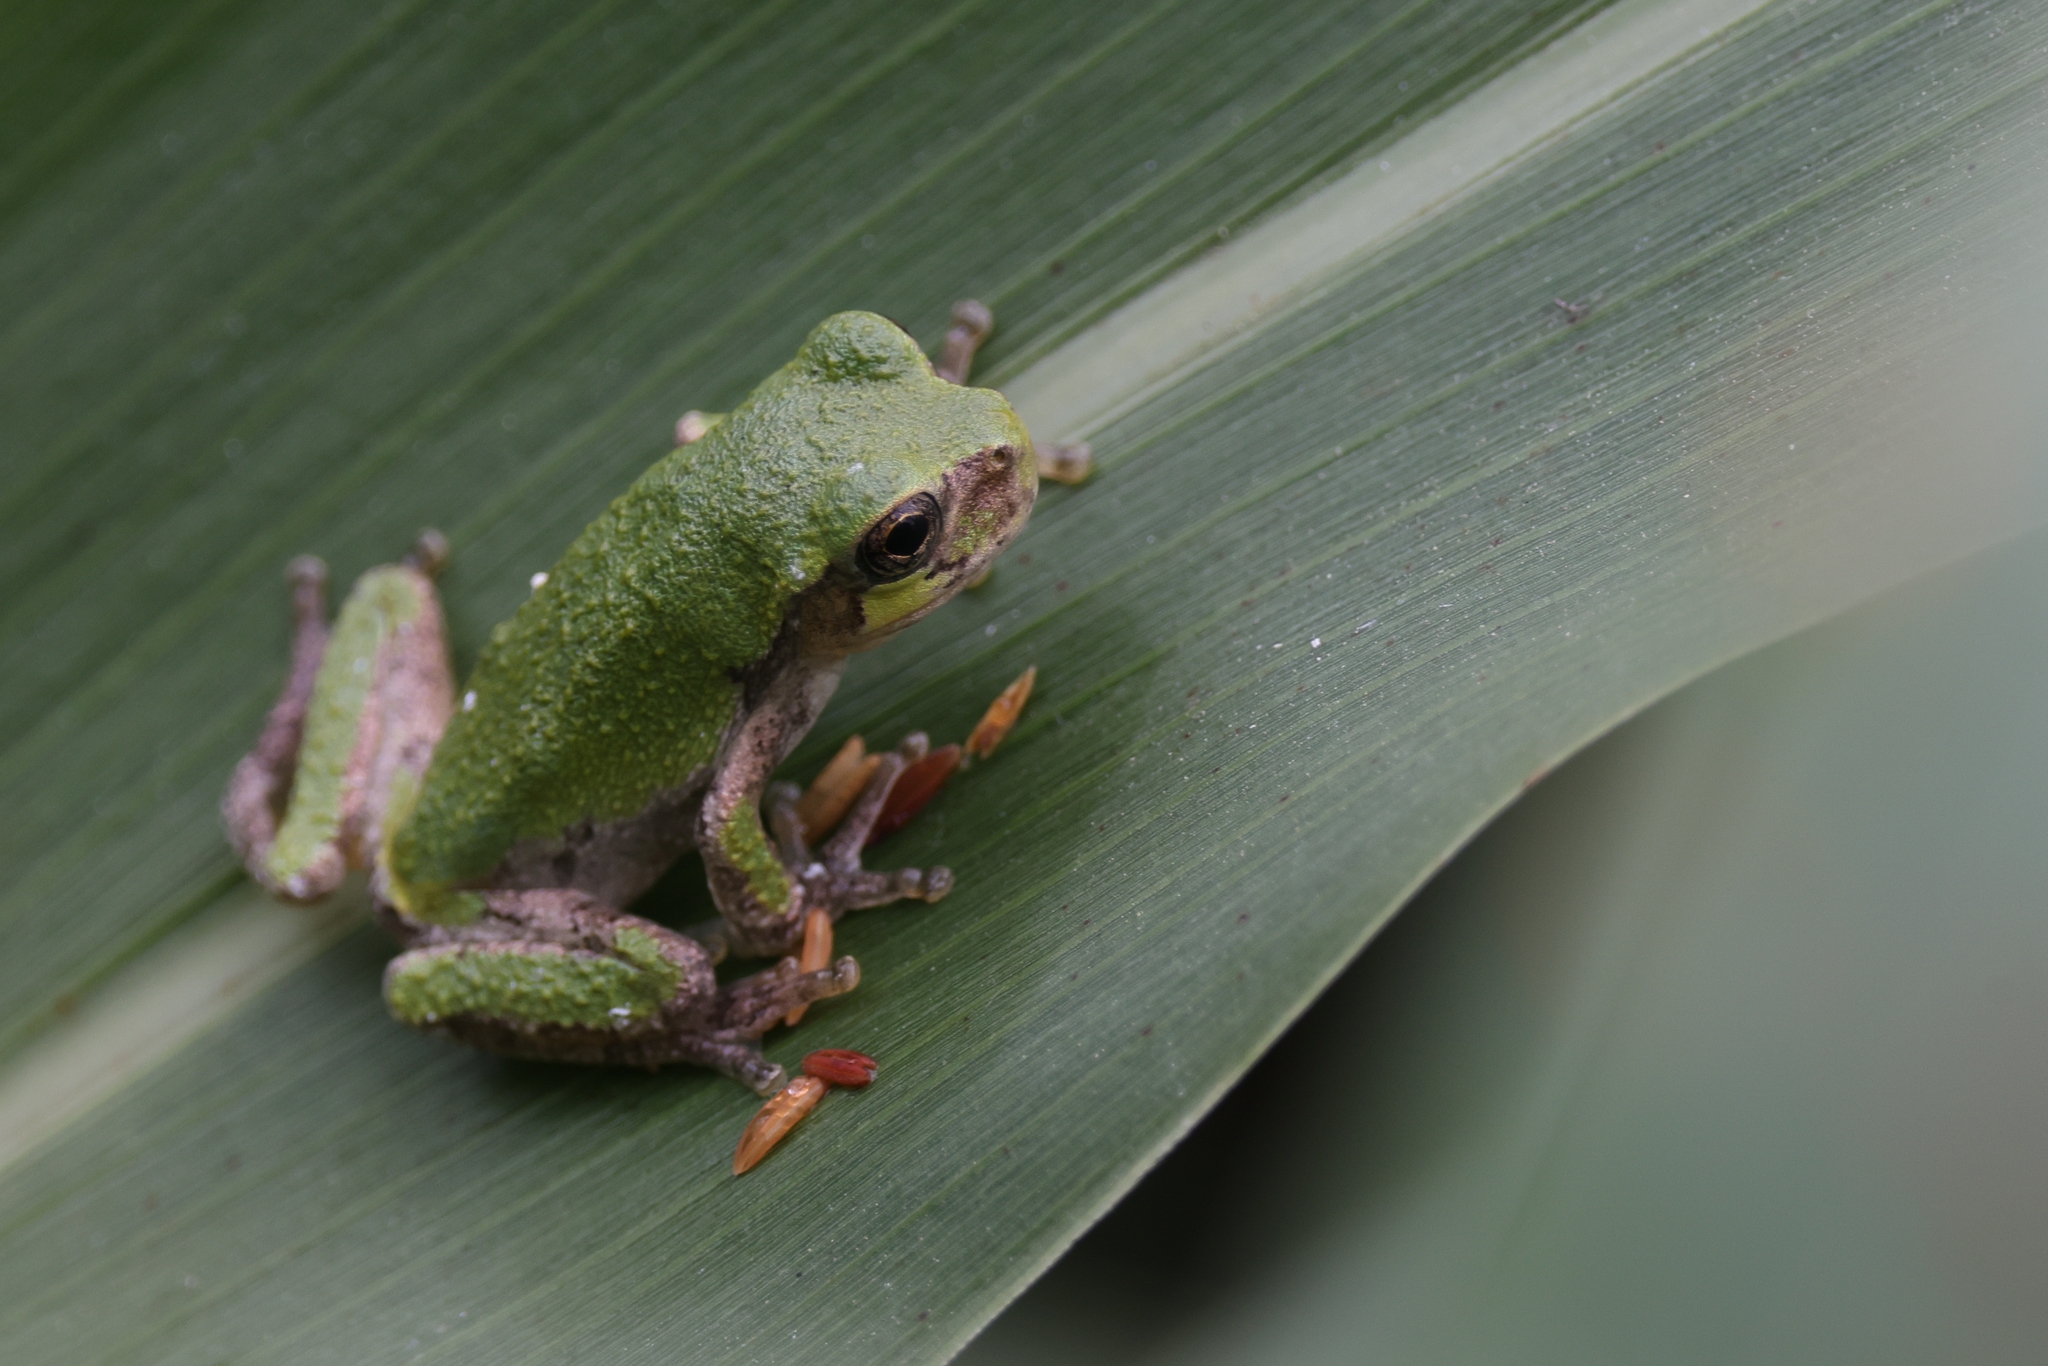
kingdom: Animalia
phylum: Chordata
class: Amphibia
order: Anura
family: Hylidae
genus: Dryophytes
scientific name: Dryophytes versicolor
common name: Gray treefrog
